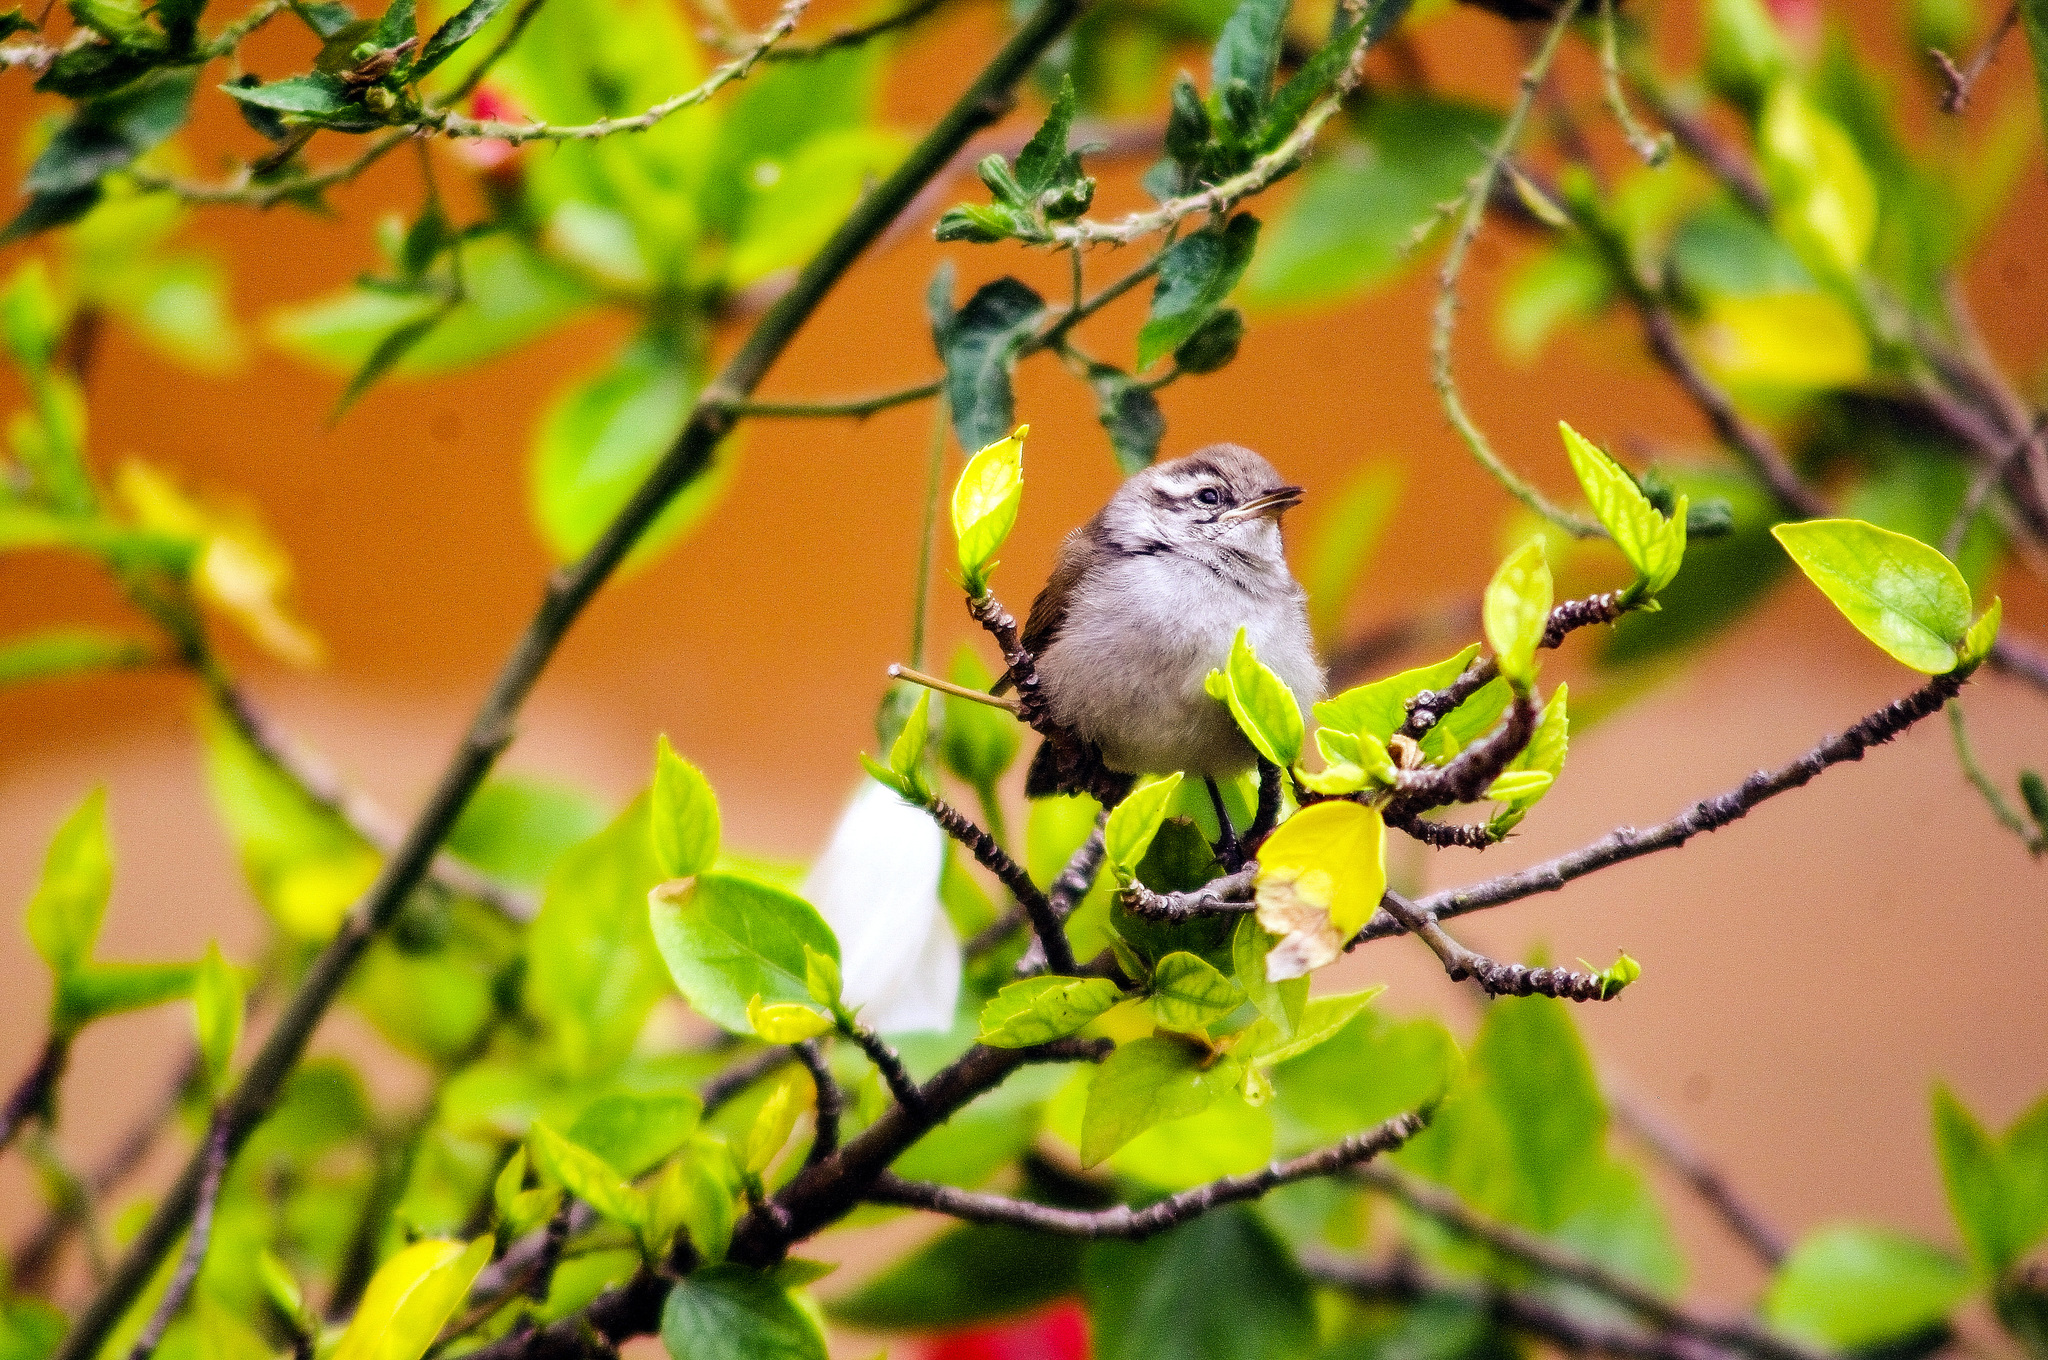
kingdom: Animalia
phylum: Chordata
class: Aves
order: Passeriformes
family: Troglodytidae
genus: Thryomanes
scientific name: Thryomanes bewickii
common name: Bewick's wren
